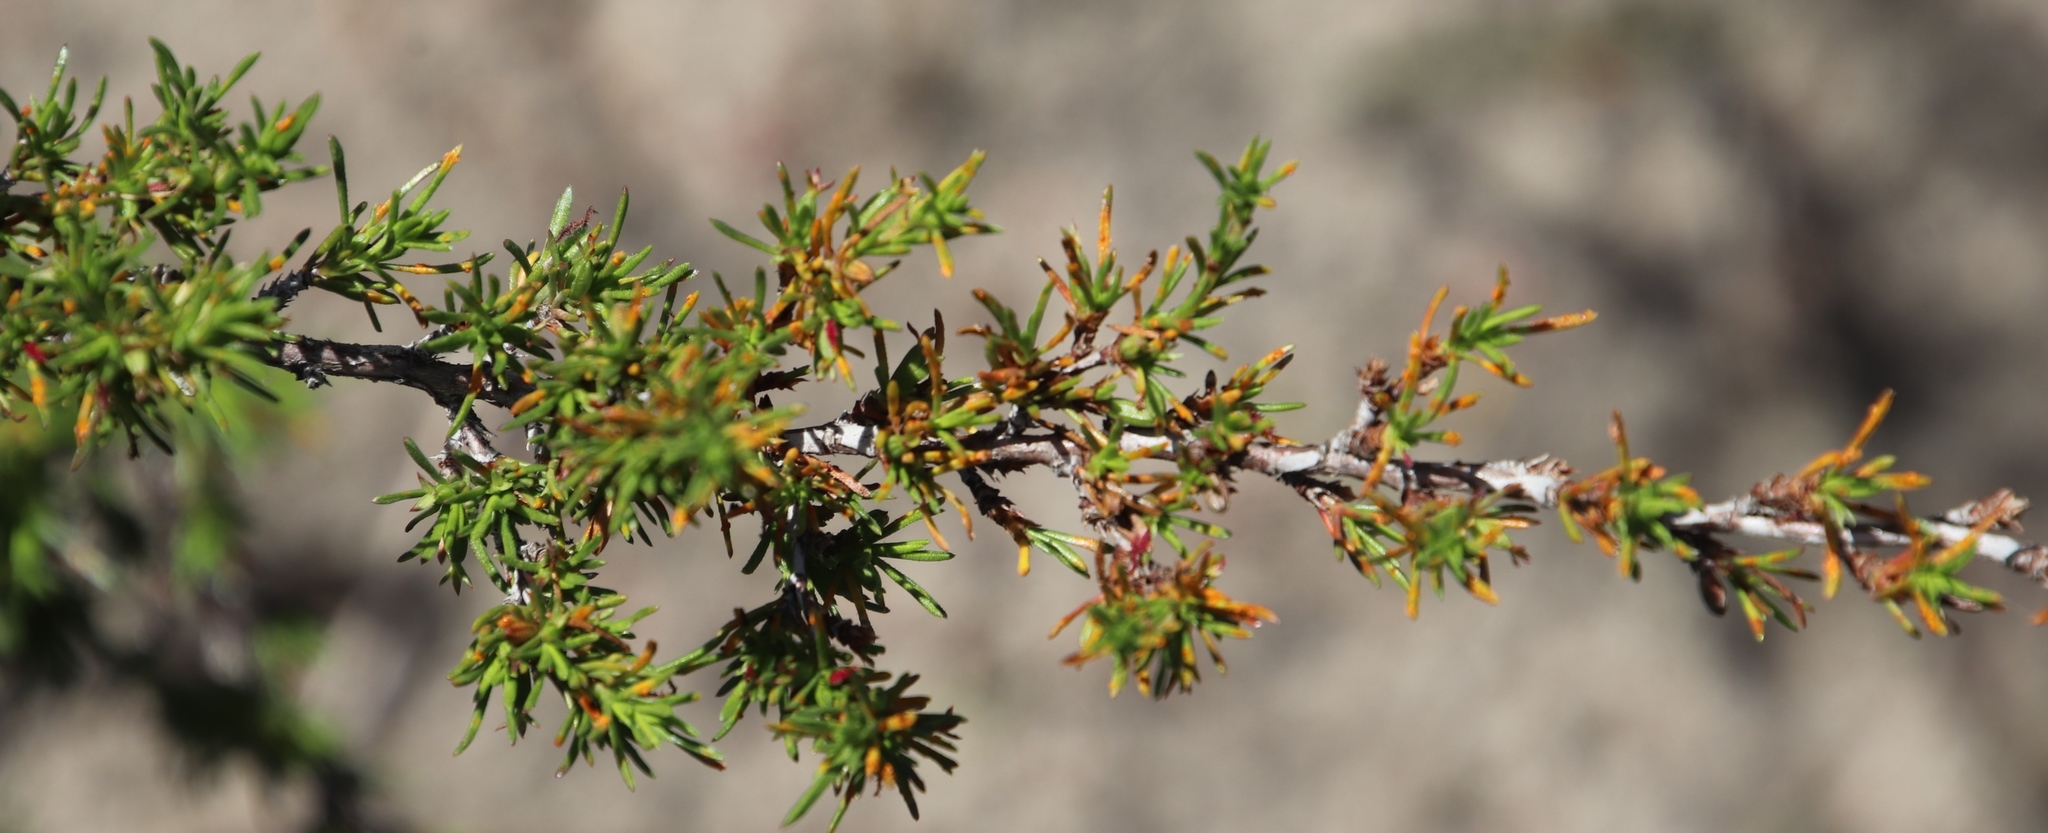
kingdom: Plantae
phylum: Tracheophyta
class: Magnoliopsida
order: Rosales
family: Rosaceae
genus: Cliffortia
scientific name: Cliffortia juniperina
